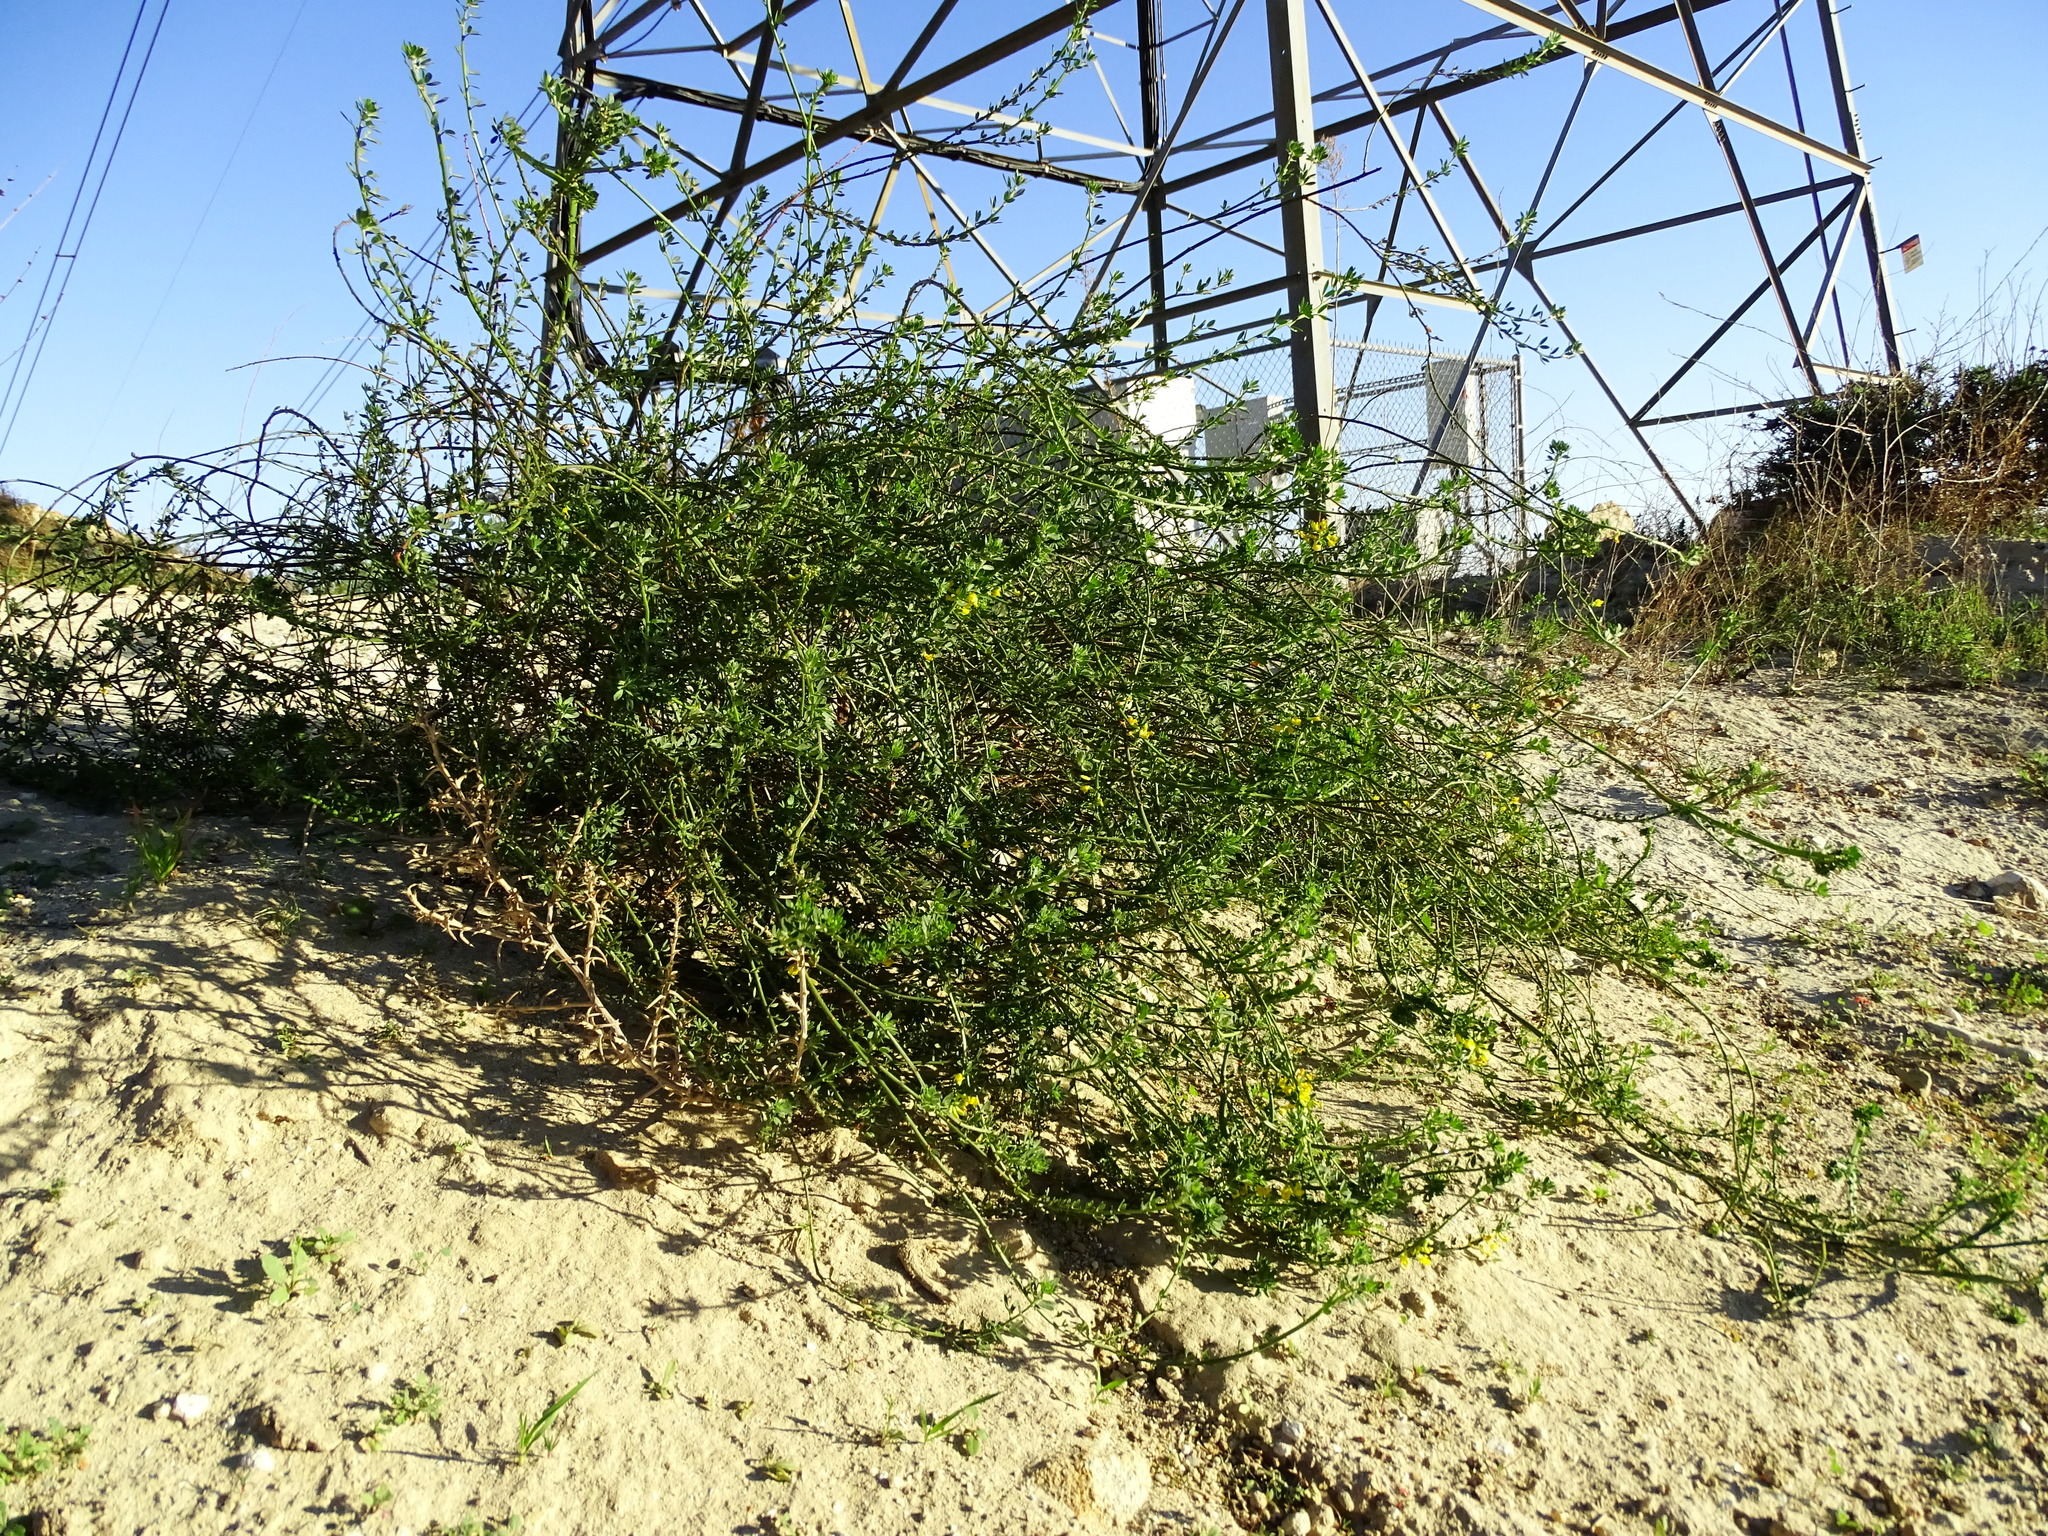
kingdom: Plantae
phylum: Tracheophyta
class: Magnoliopsida
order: Fabales
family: Fabaceae
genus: Acmispon
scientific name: Acmispon glaber
